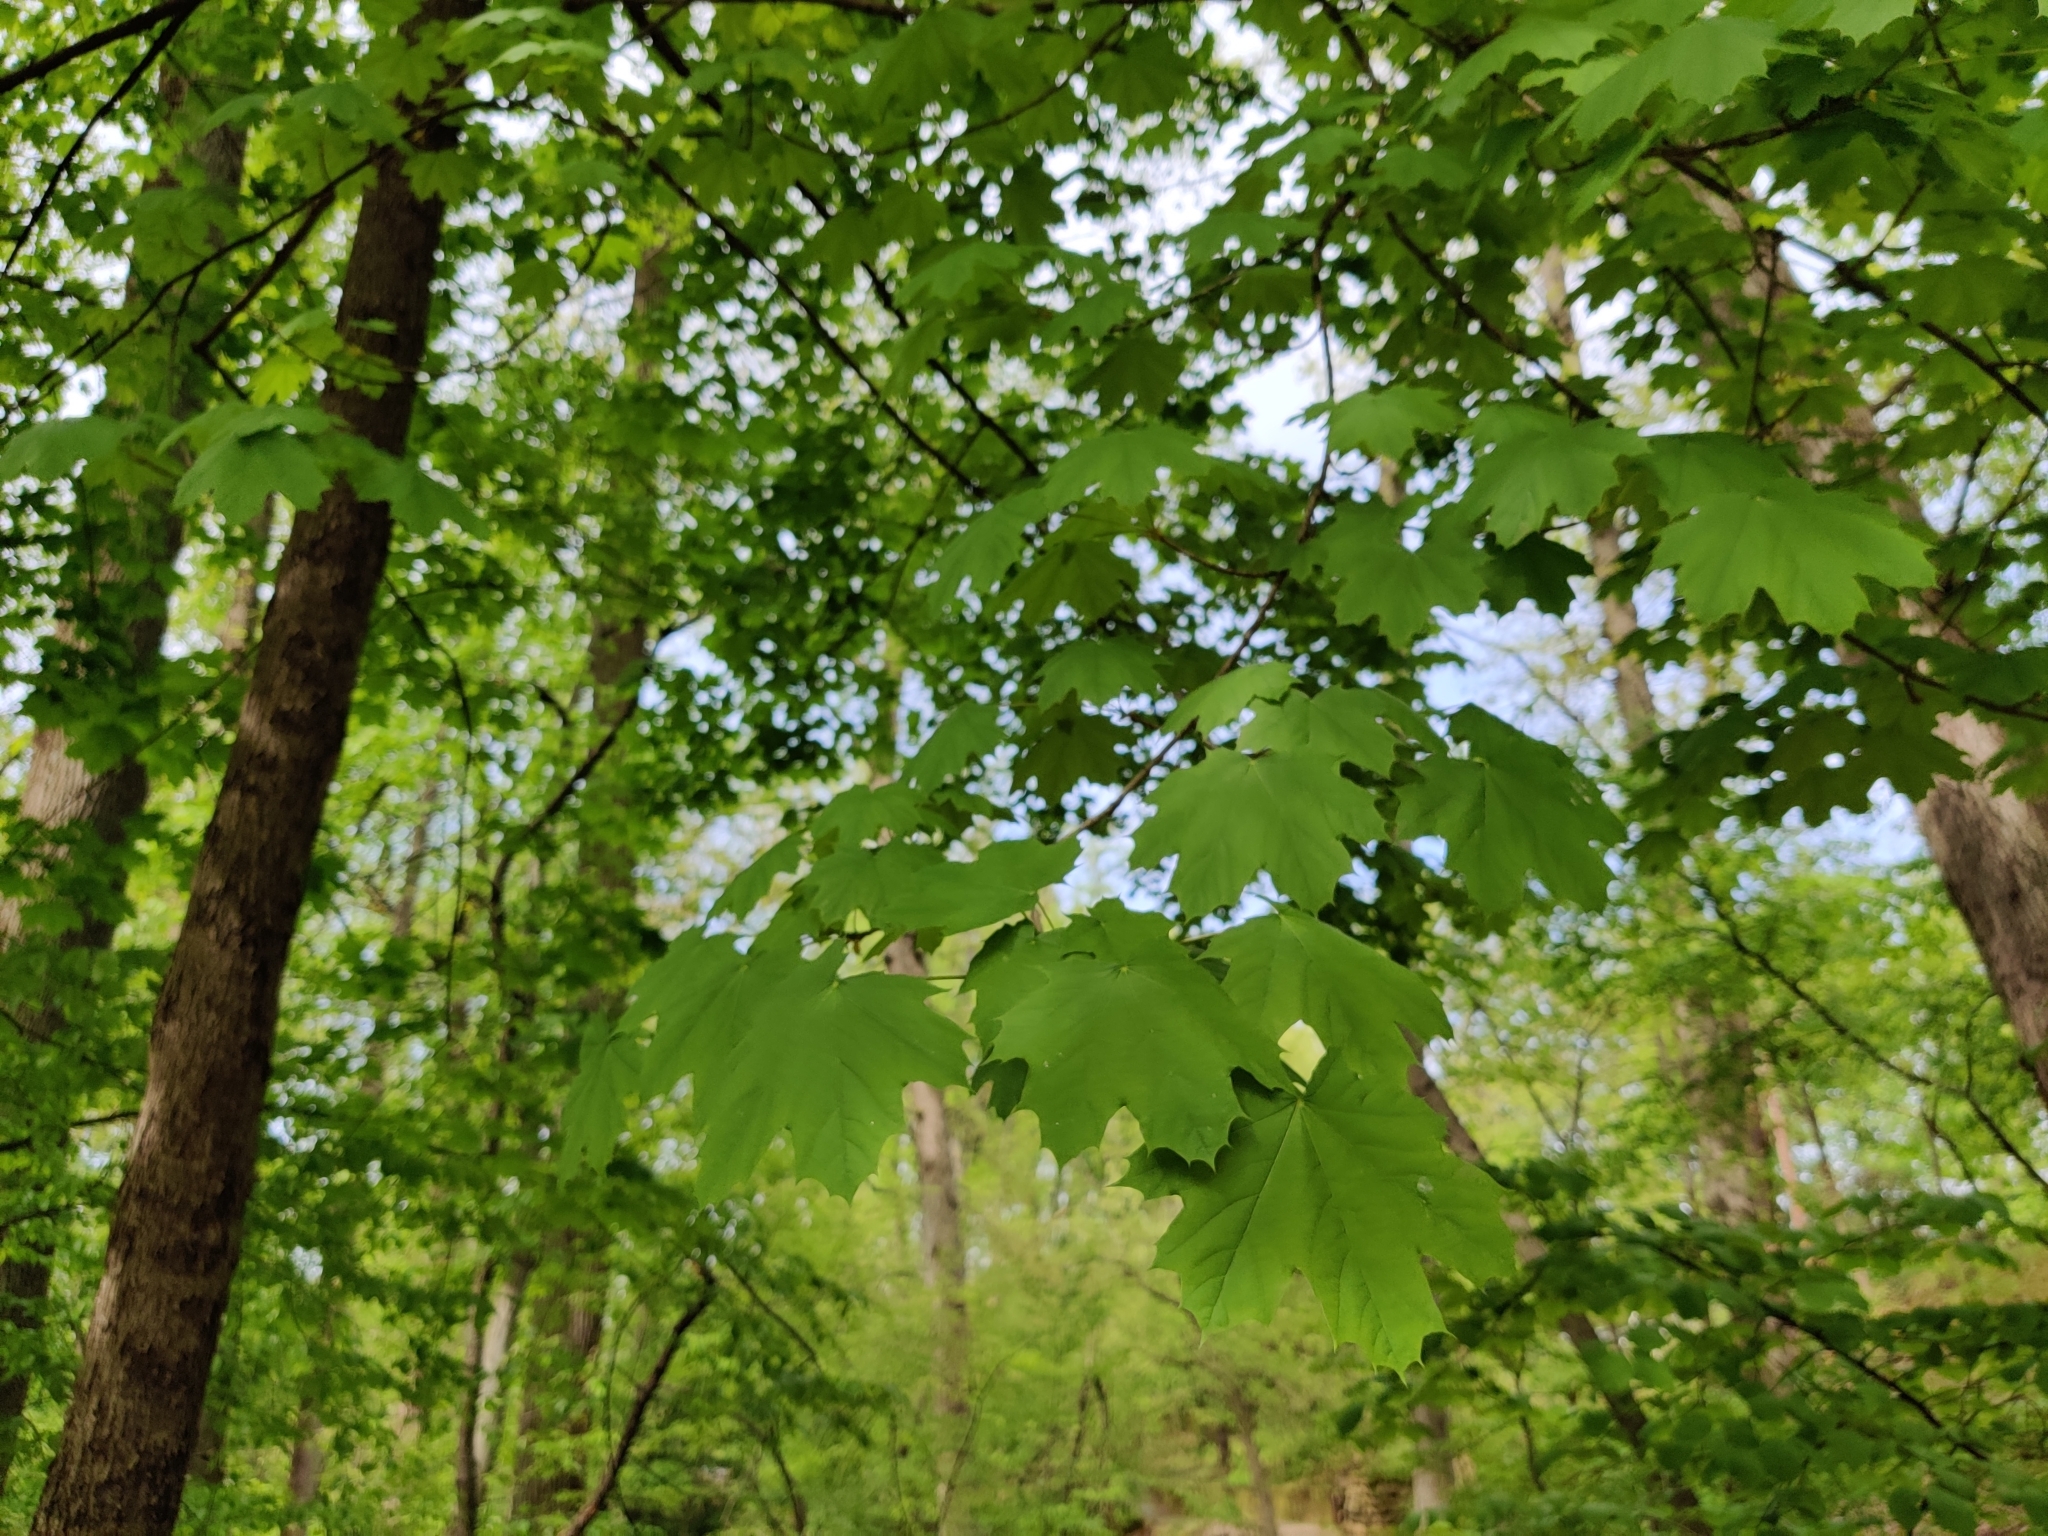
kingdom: Plantae
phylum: Tracheophyta
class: Magnoliopsida
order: Sapindales
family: Sapindaceae
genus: Acer
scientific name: Acer platanoides
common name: Norway maple
